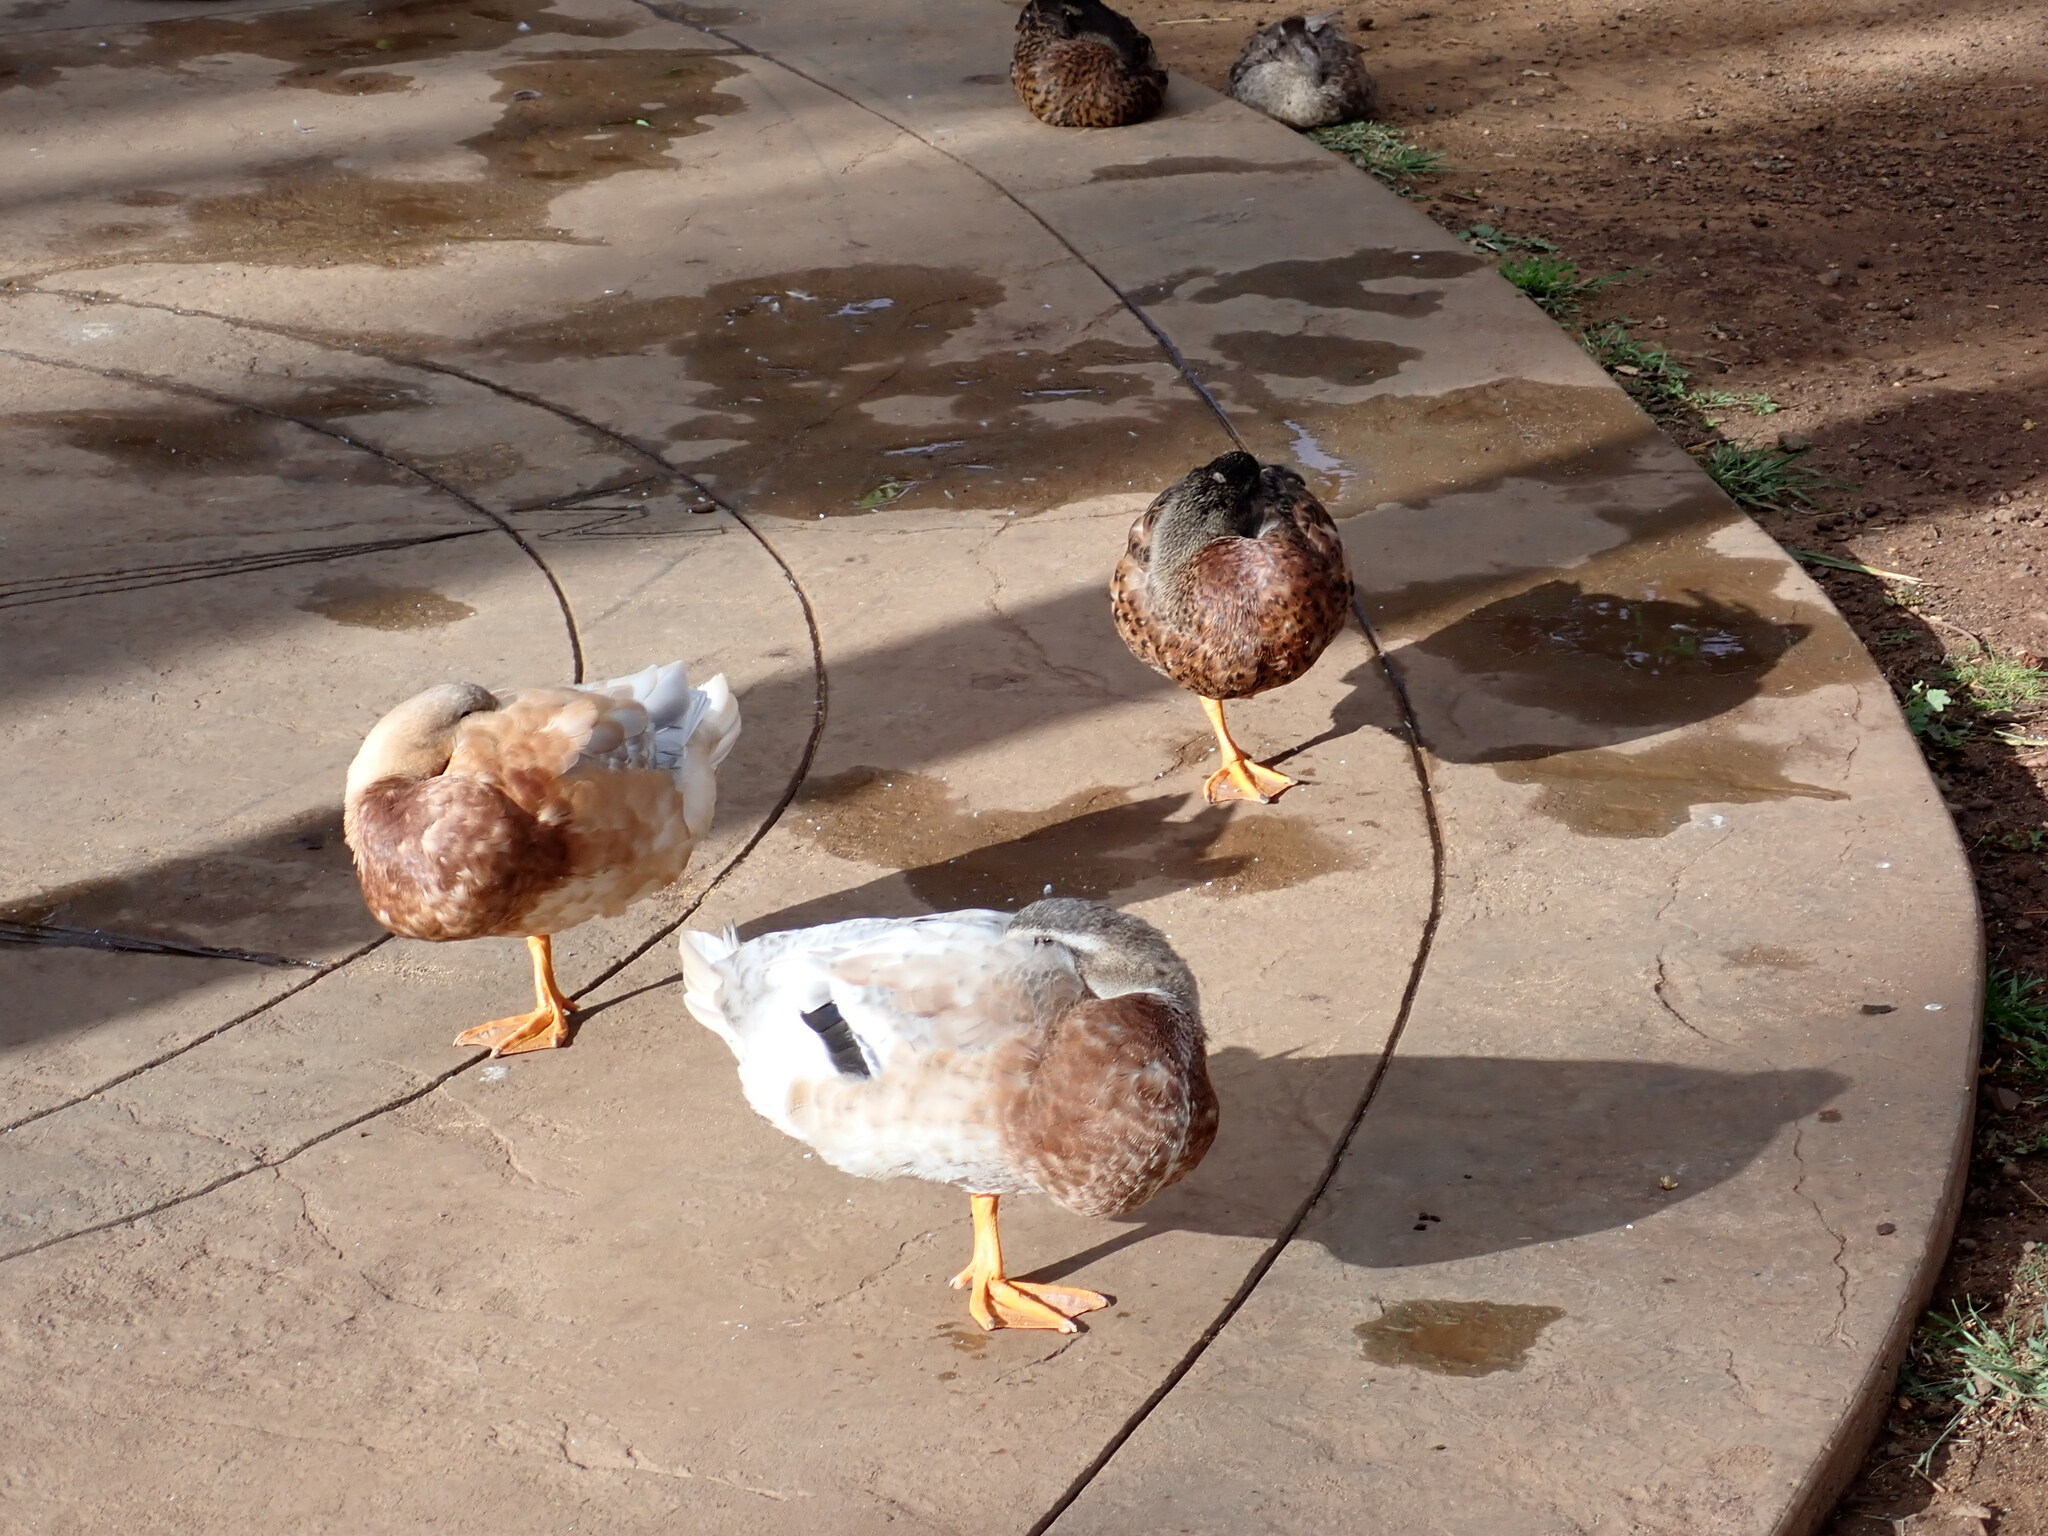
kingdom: Animalia
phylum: Chordata
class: Aves
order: Anseriformes
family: Anatidae
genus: Anas
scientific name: Anas platyrhynchos
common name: Mallard
